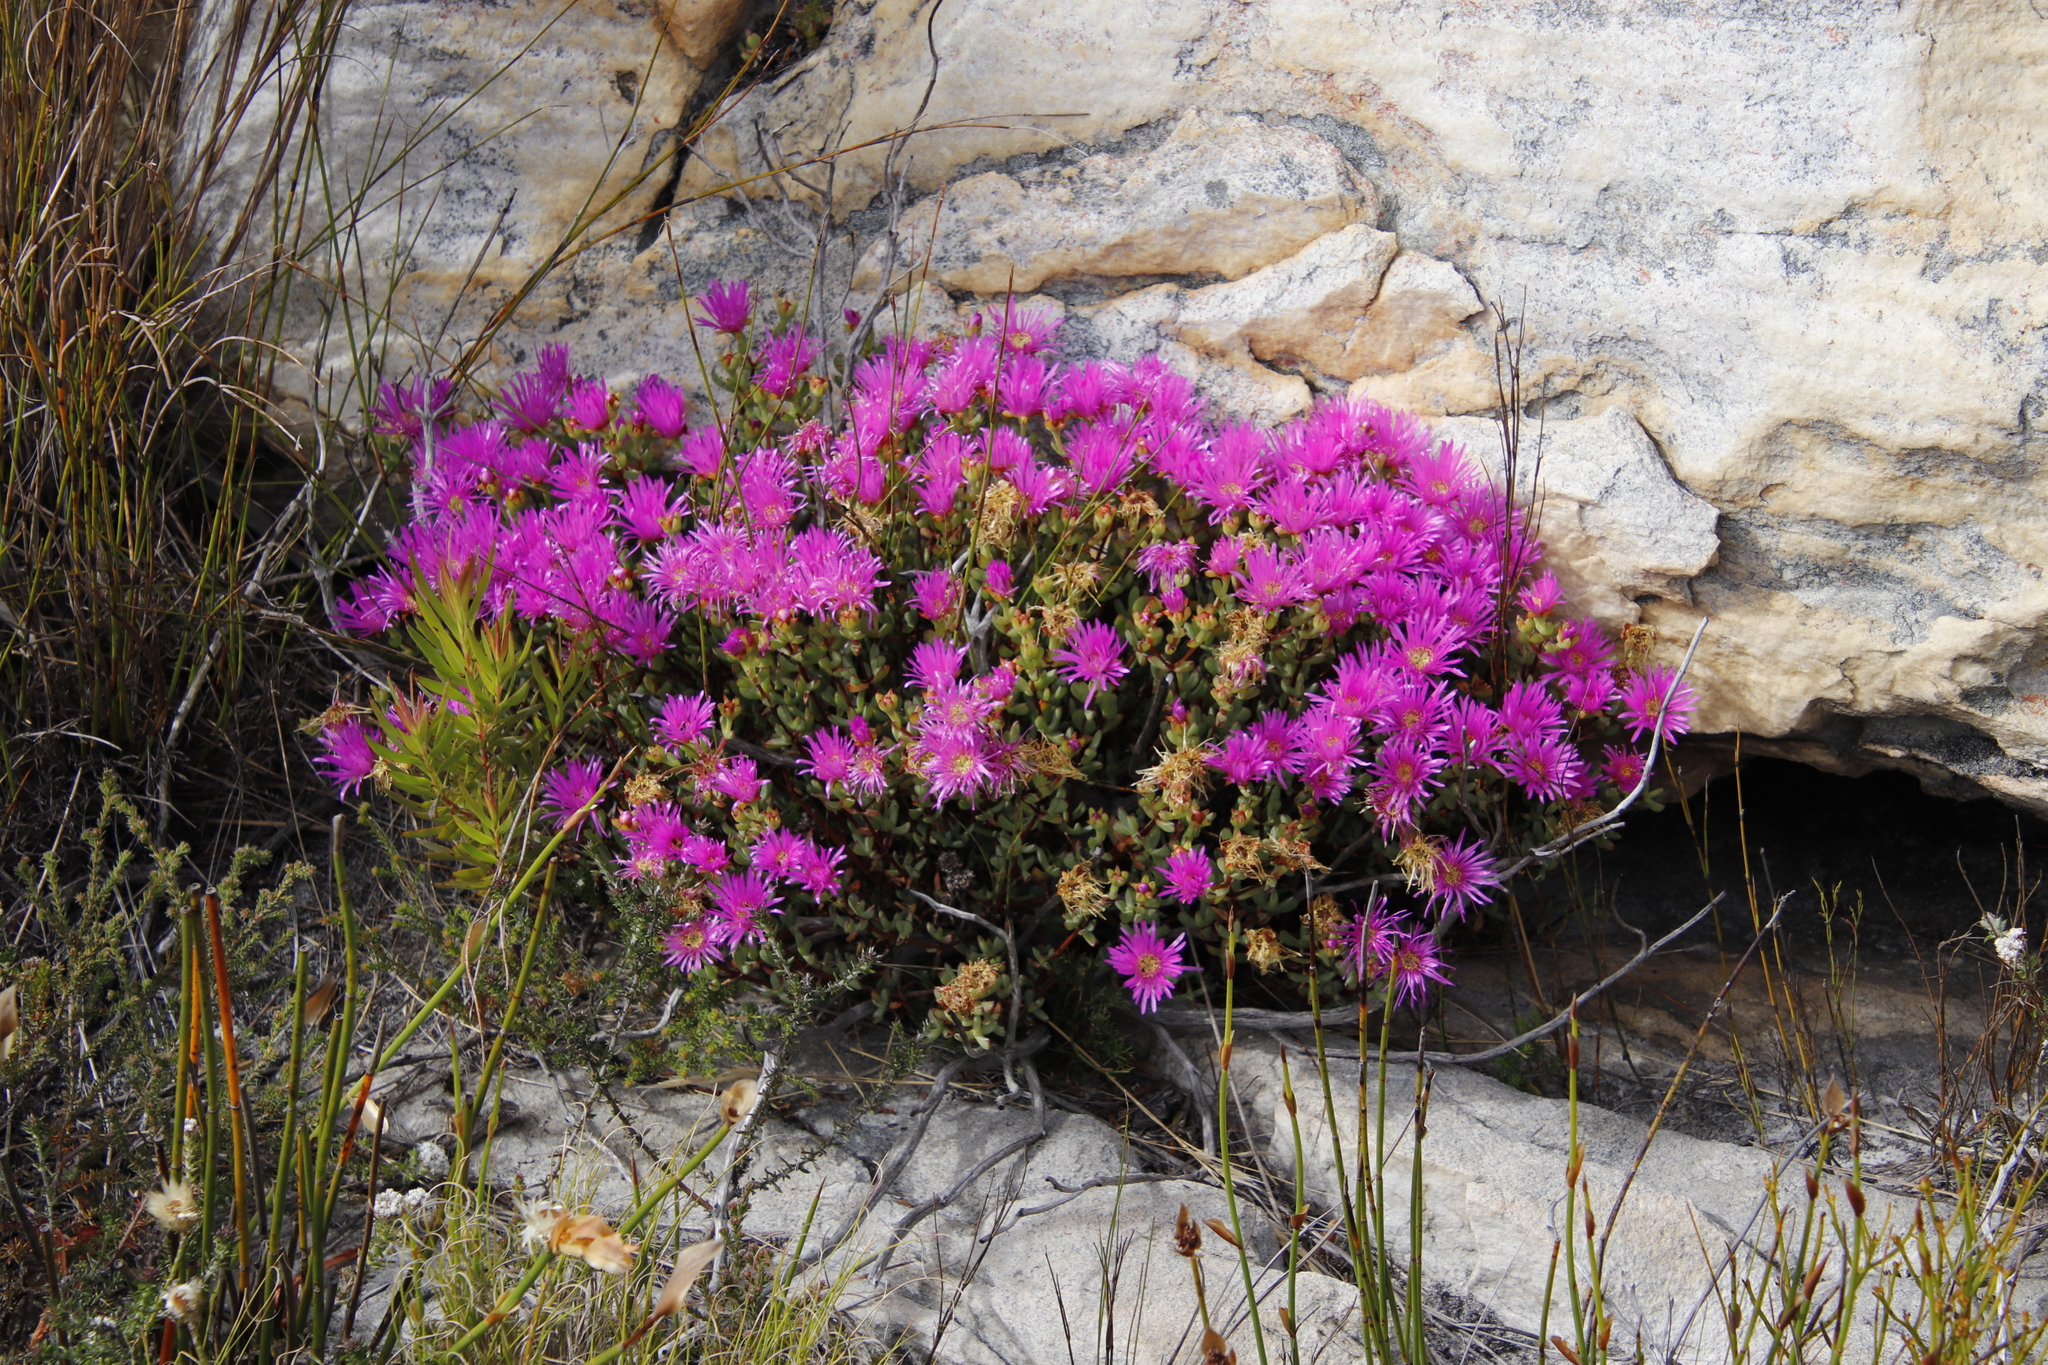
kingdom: Plantae
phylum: Tracheophyta
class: Magnoliopsida
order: Caryophyllales
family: Aizoaceae
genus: Oscularia
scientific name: Oscularia falciformis
